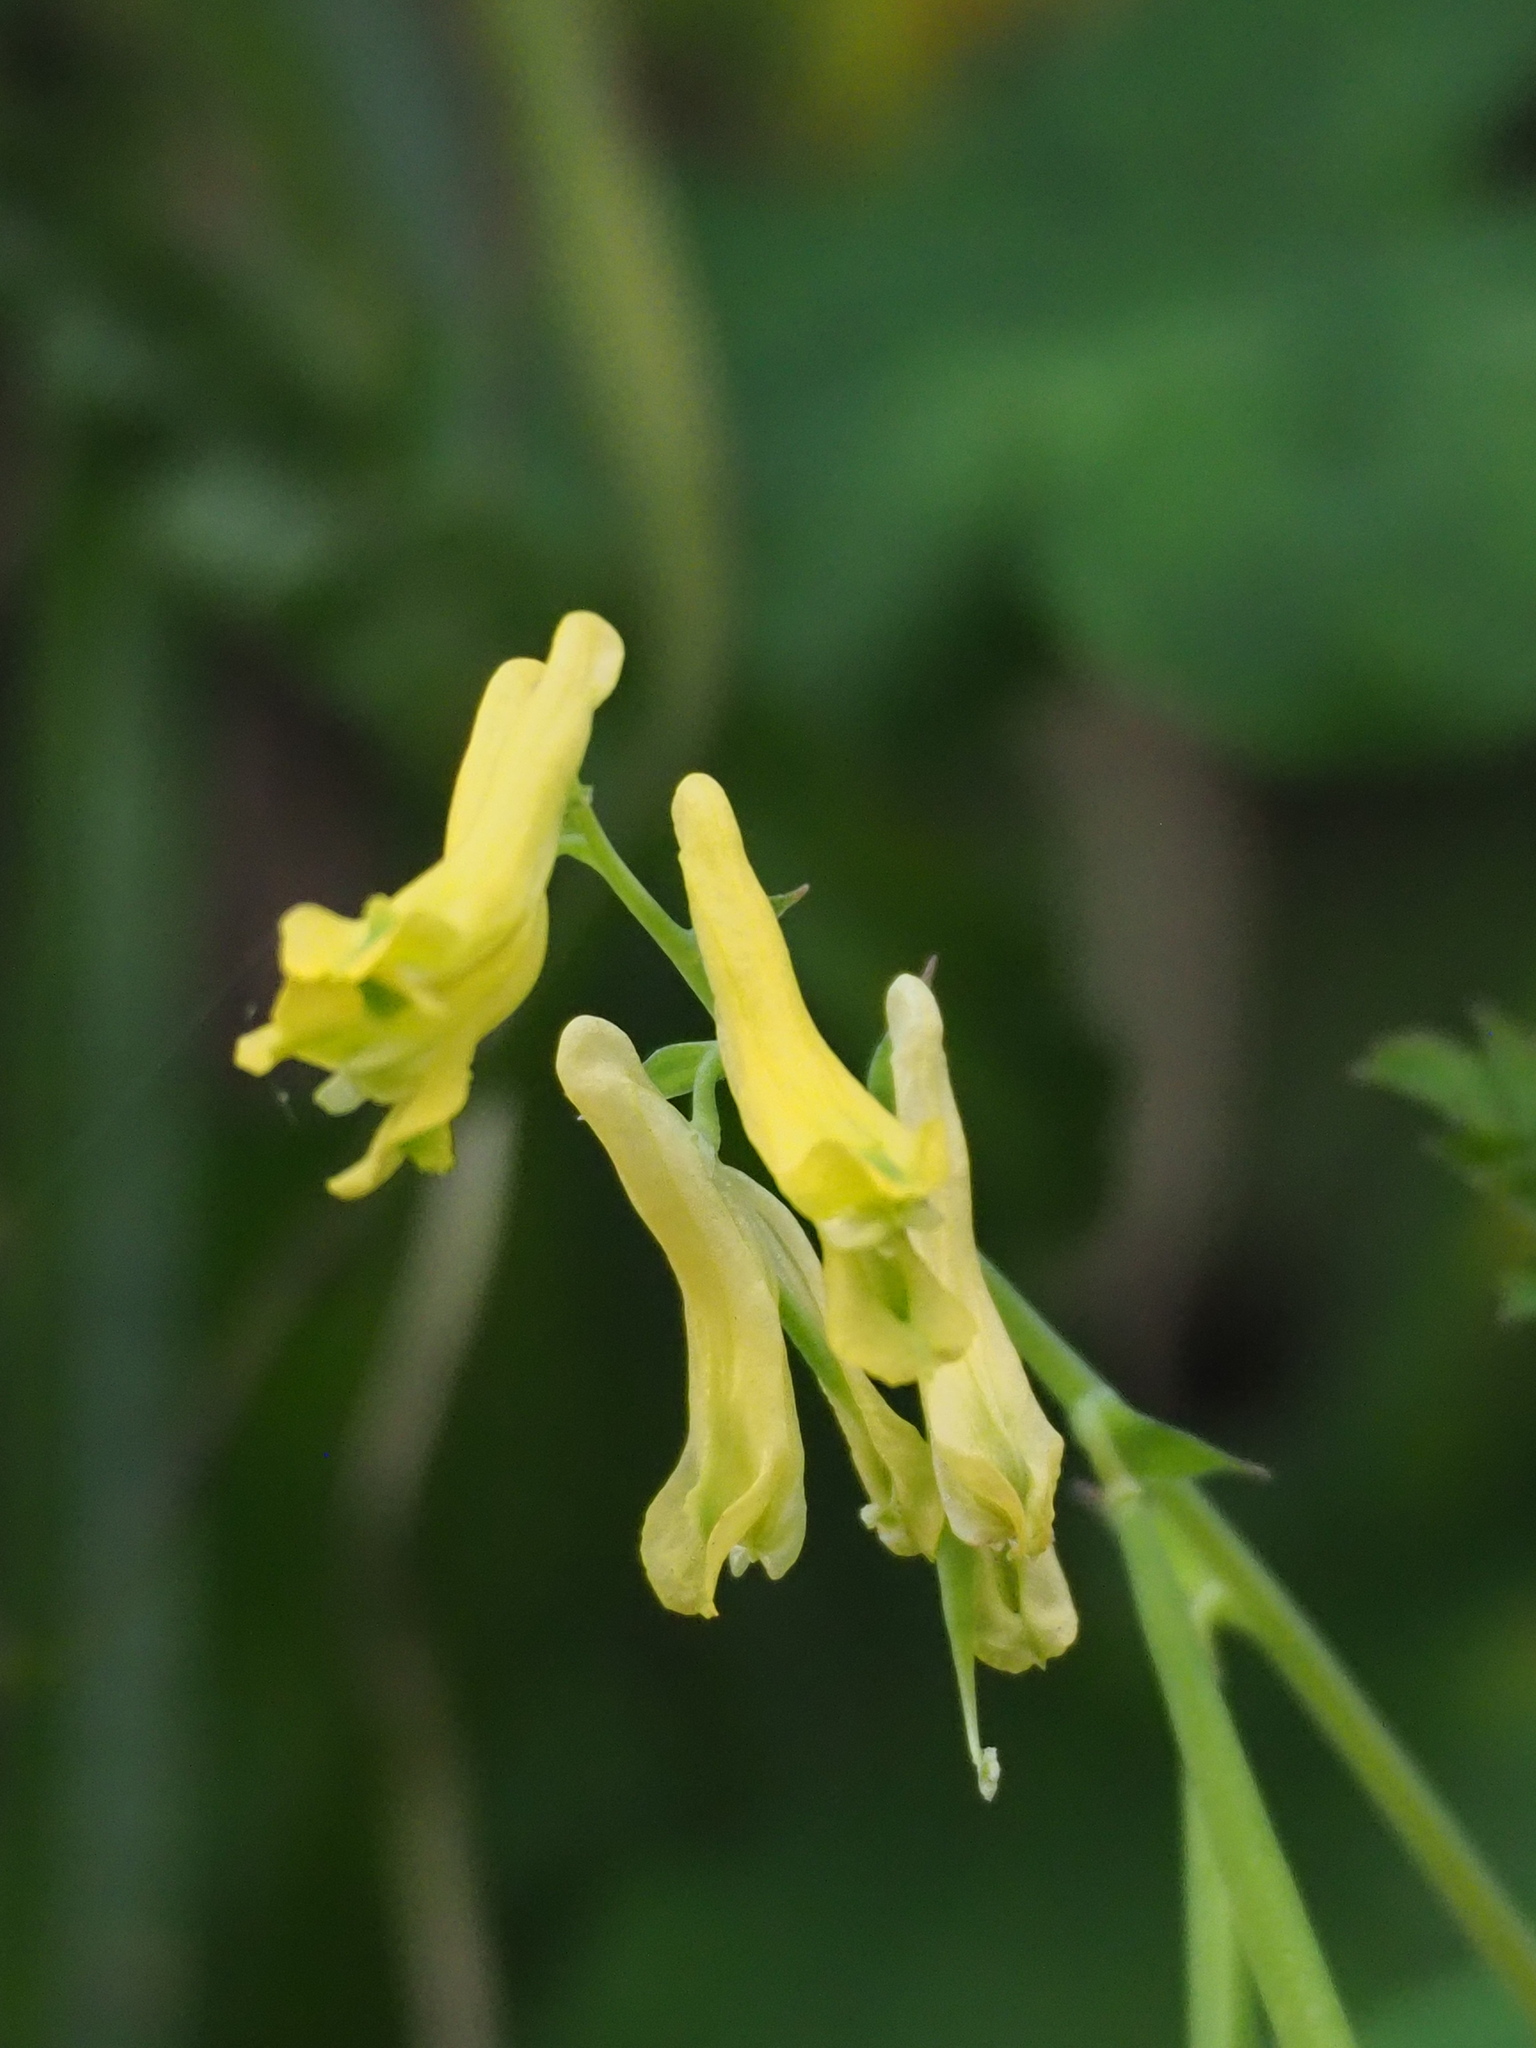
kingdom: Plantae
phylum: Tracheophyta
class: Magnoliopsida
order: Ranunculales
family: Papaveraceae
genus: Corydalis
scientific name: Corydalis balansae
